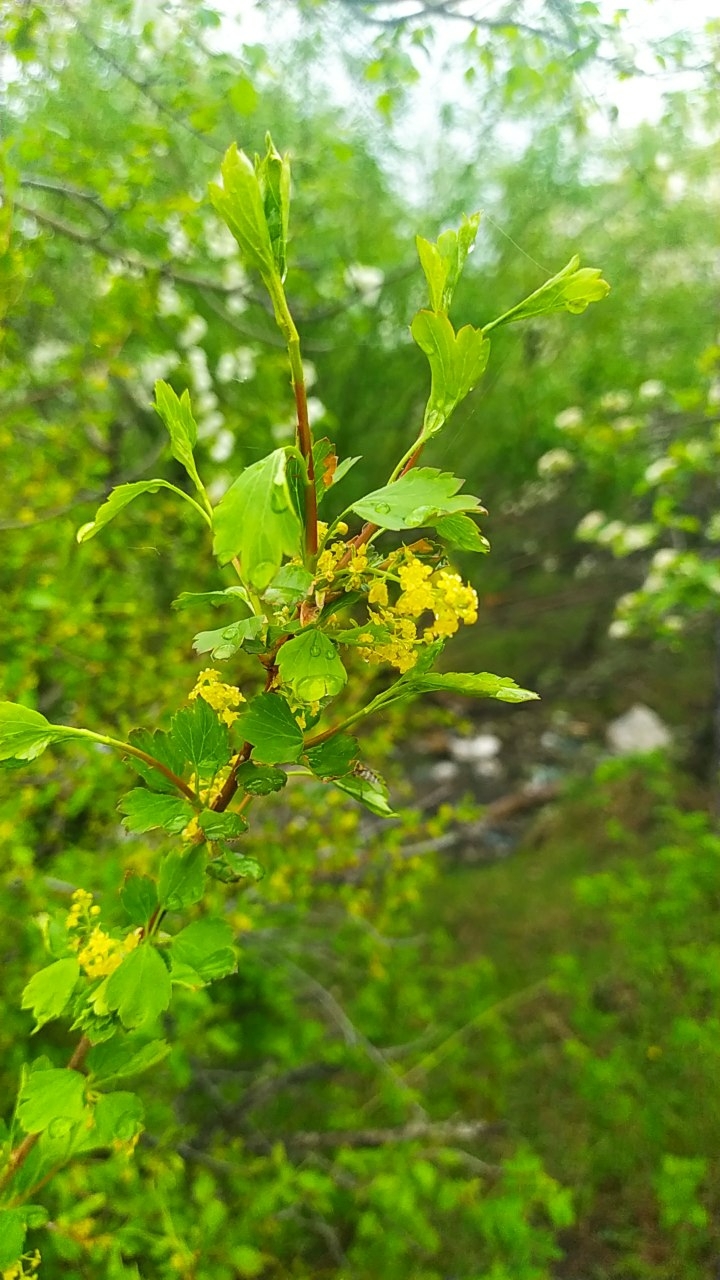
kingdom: Plantae
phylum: Tracheophyta
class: Magnoliopsida
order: Saxifragales
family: Grossulariaceae
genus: Ribes
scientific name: Ribes diacanthum
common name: Siberian currant
